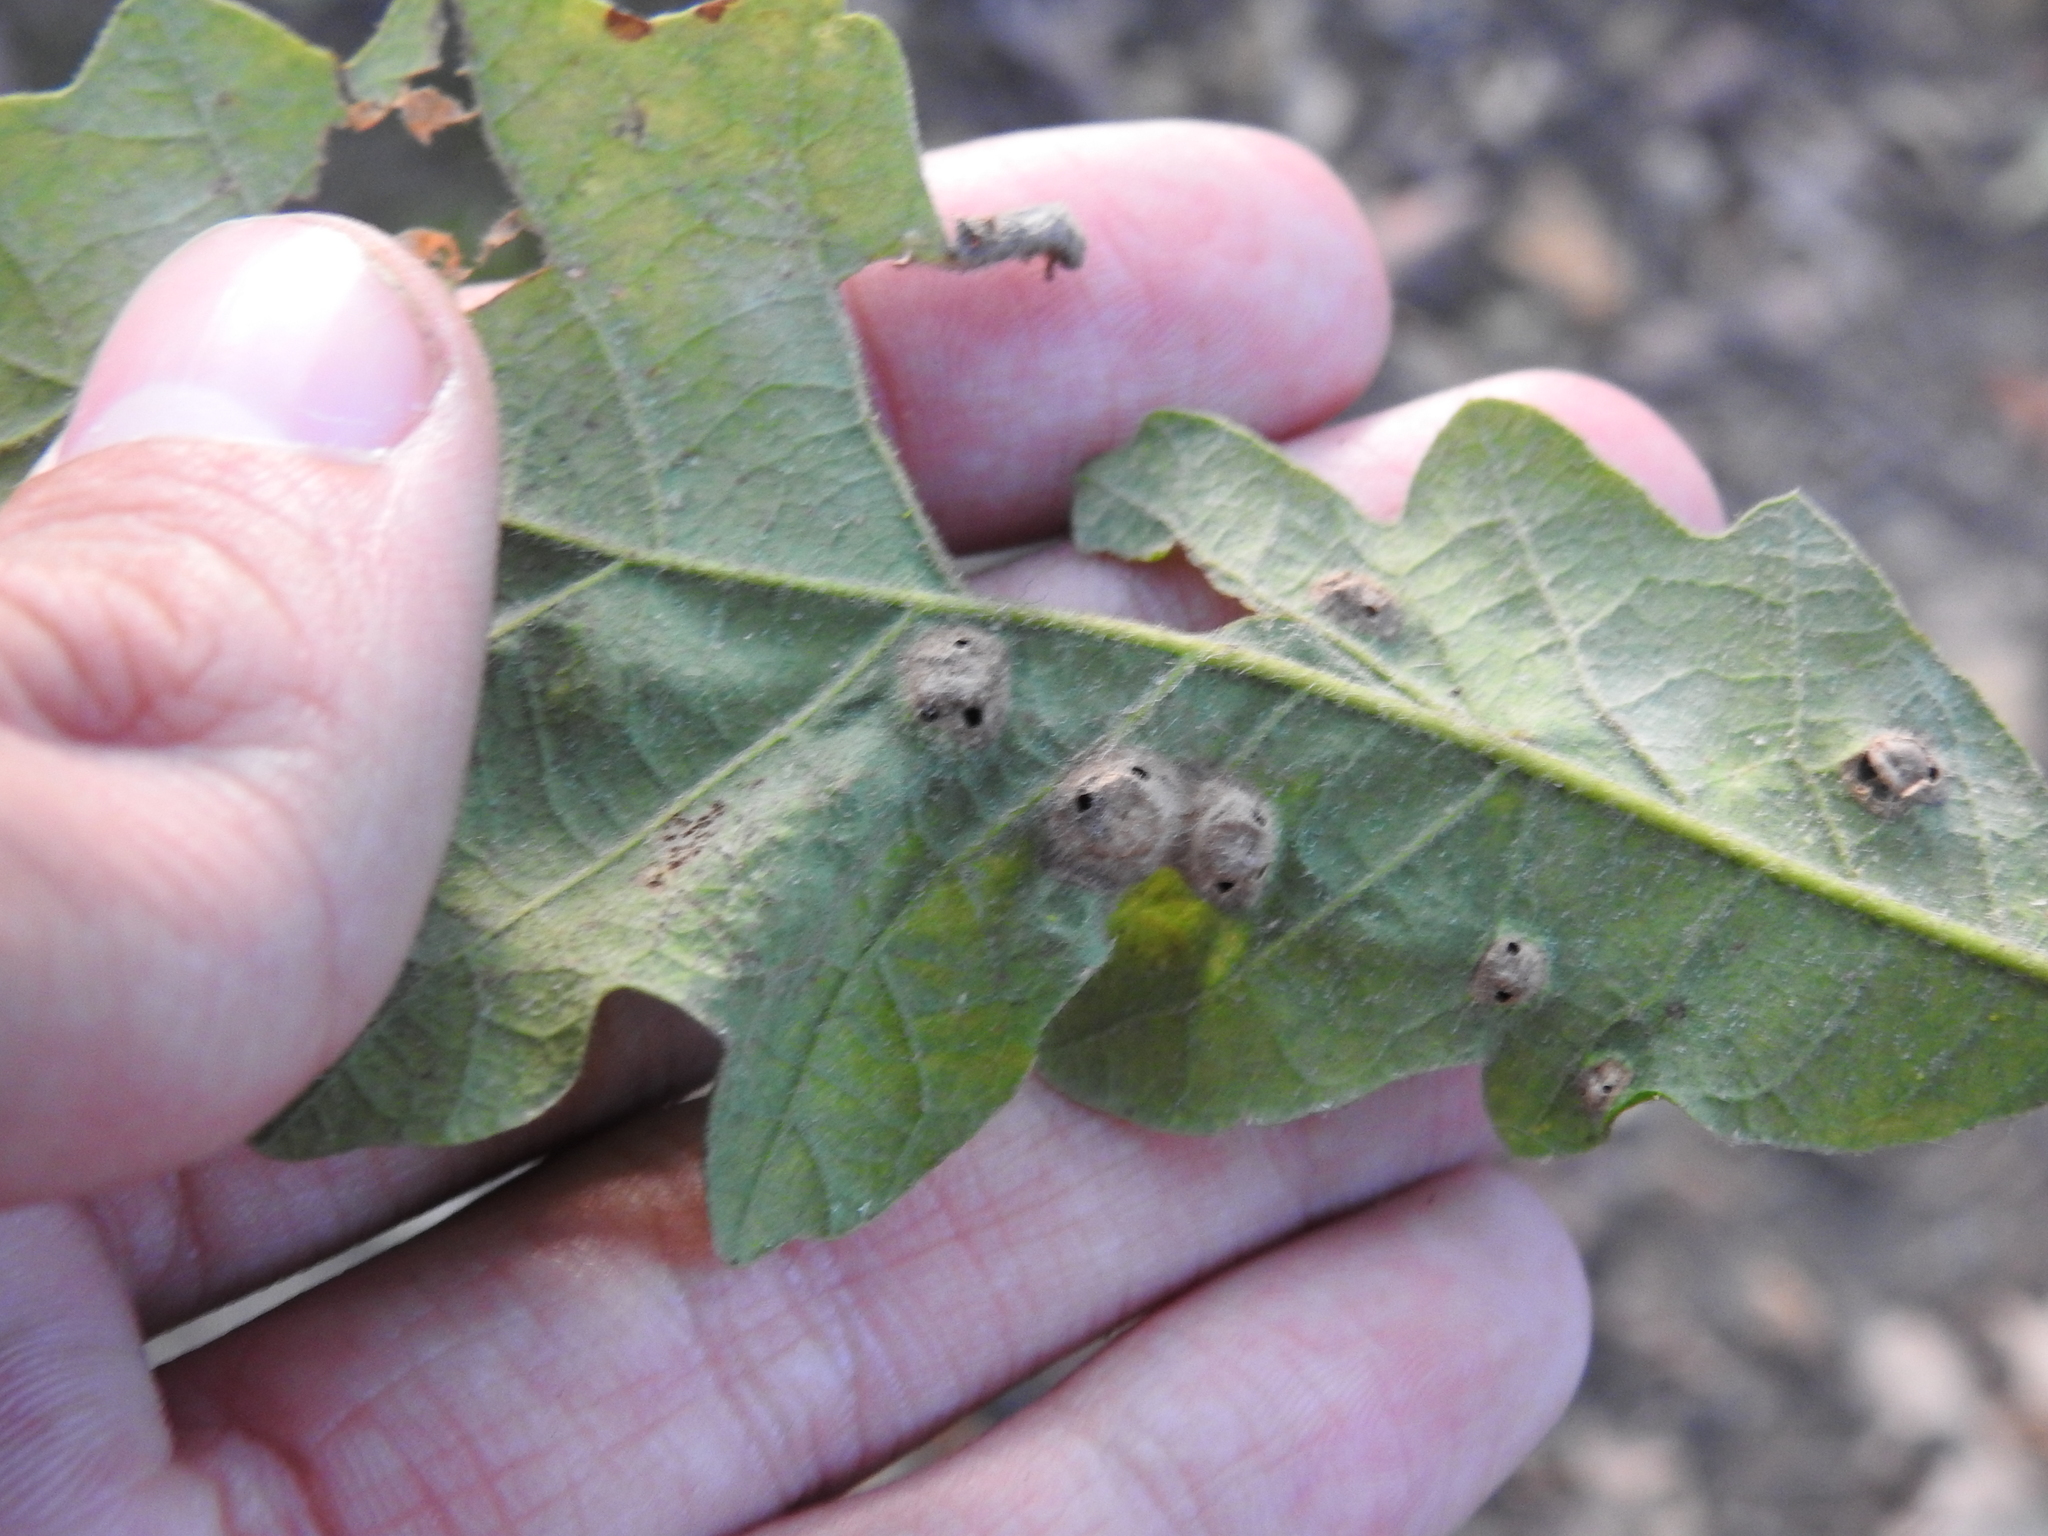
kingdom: Animalia
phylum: Arthropoda
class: Insecta
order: Hymenoptera
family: Cynipidae
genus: Callirhytis
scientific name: Callirhytis
